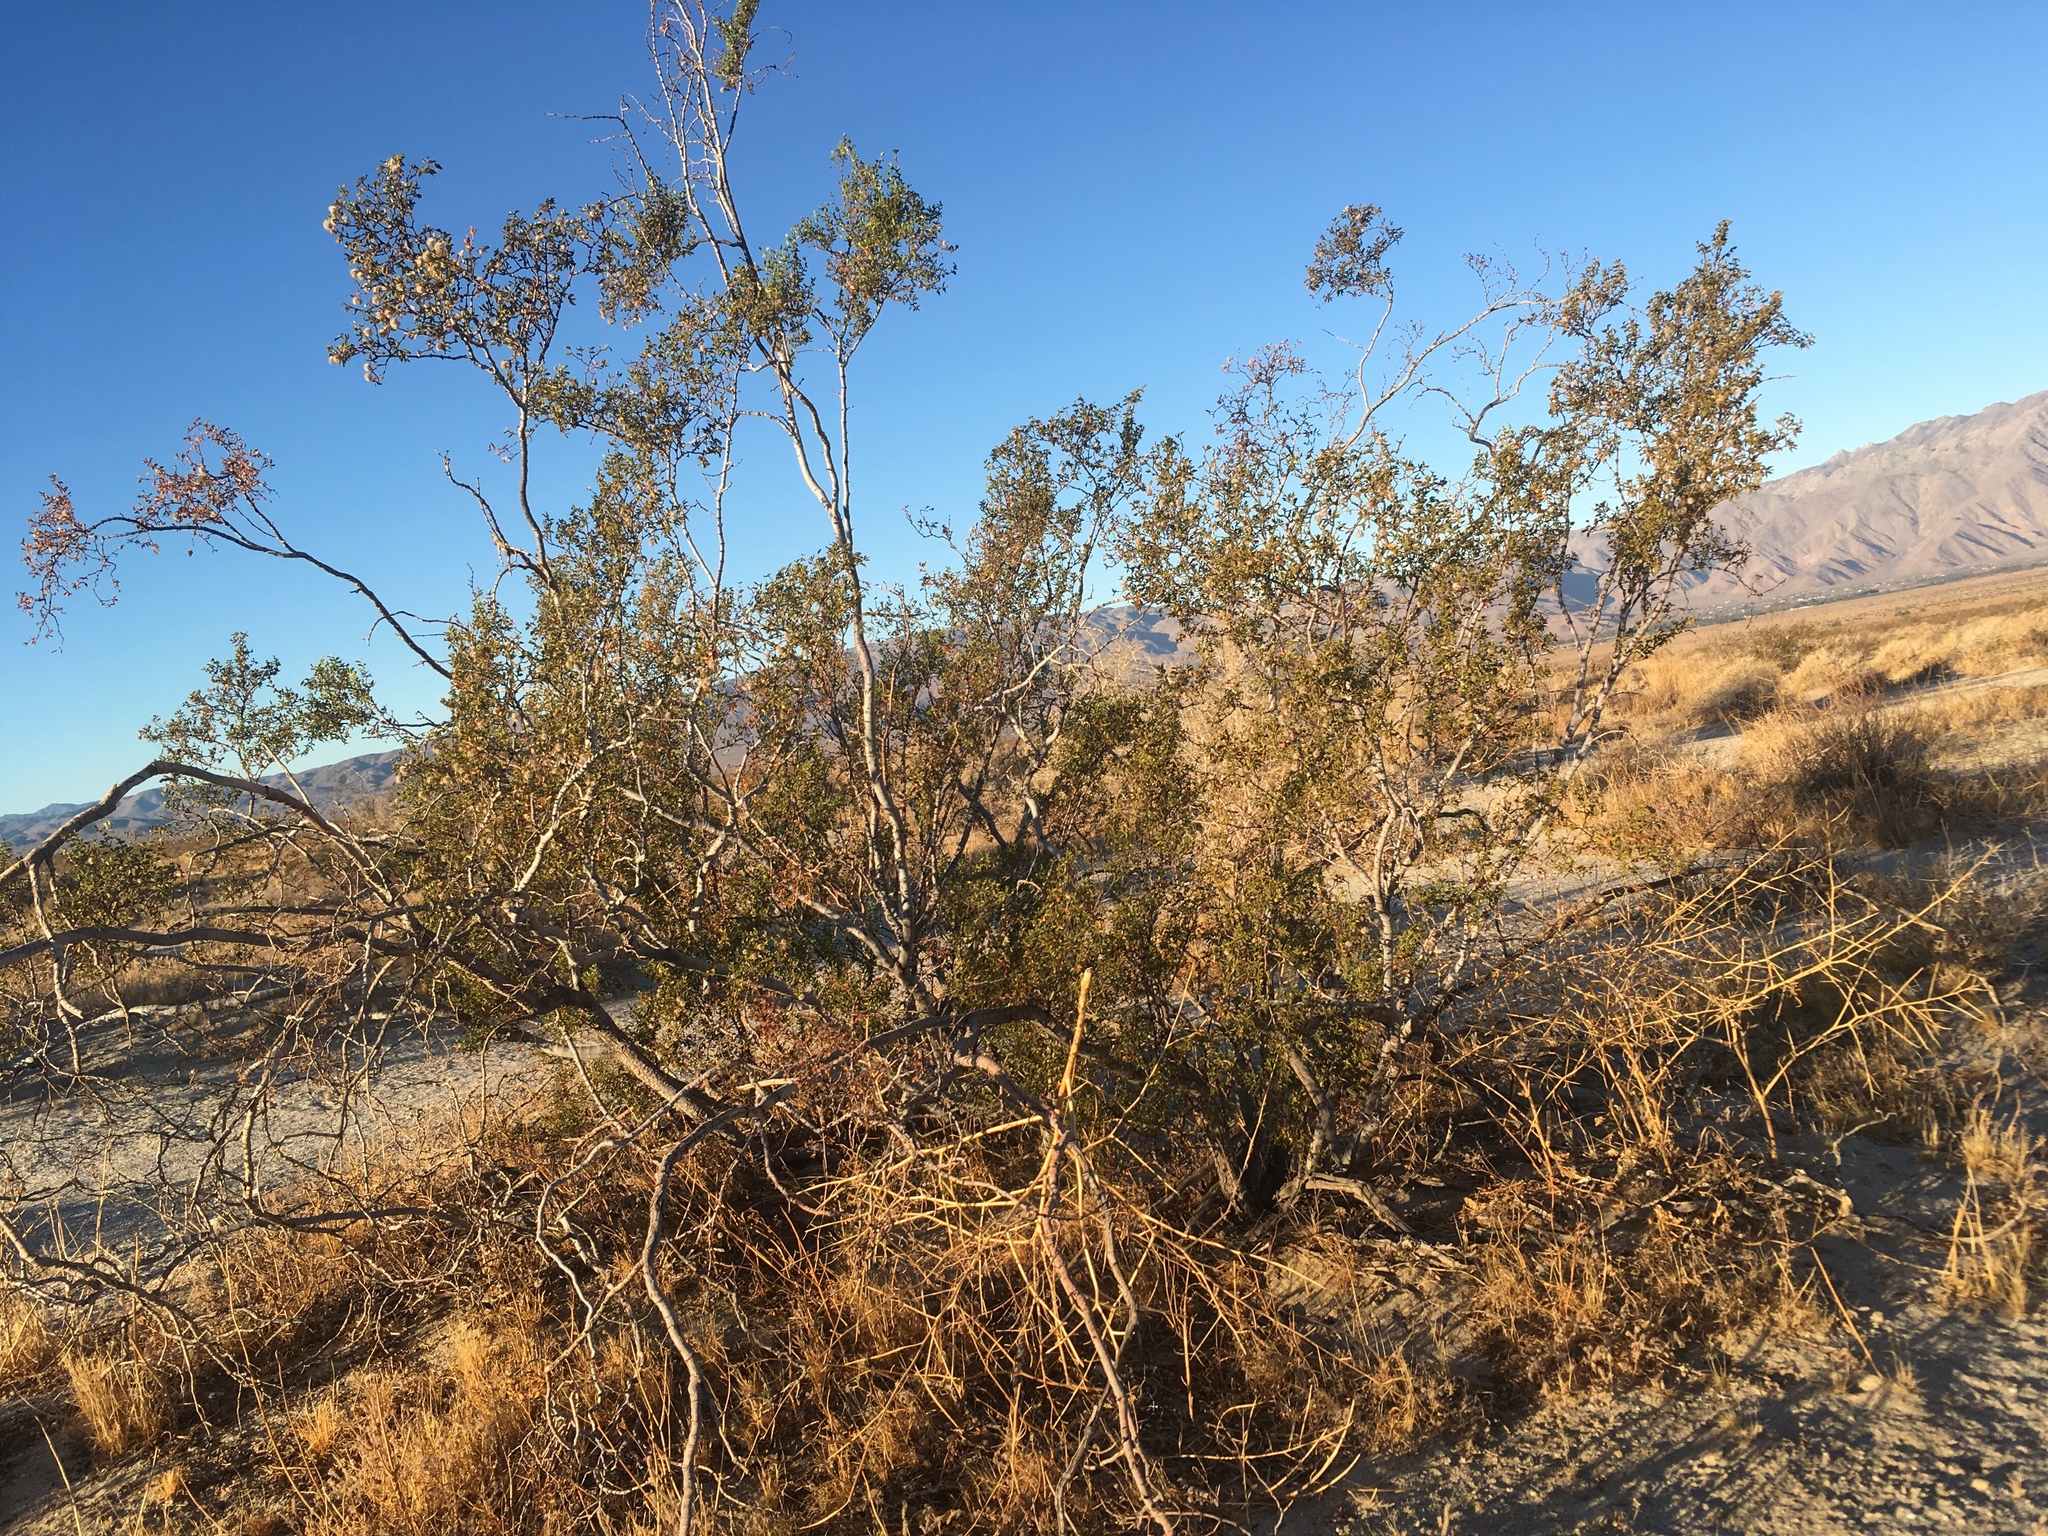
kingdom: Plantae
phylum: Tracheophyta
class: Magnoliopsida
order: Zygophyllales
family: Zygophyllaceae
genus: Larrea
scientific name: Larrea tridentata
